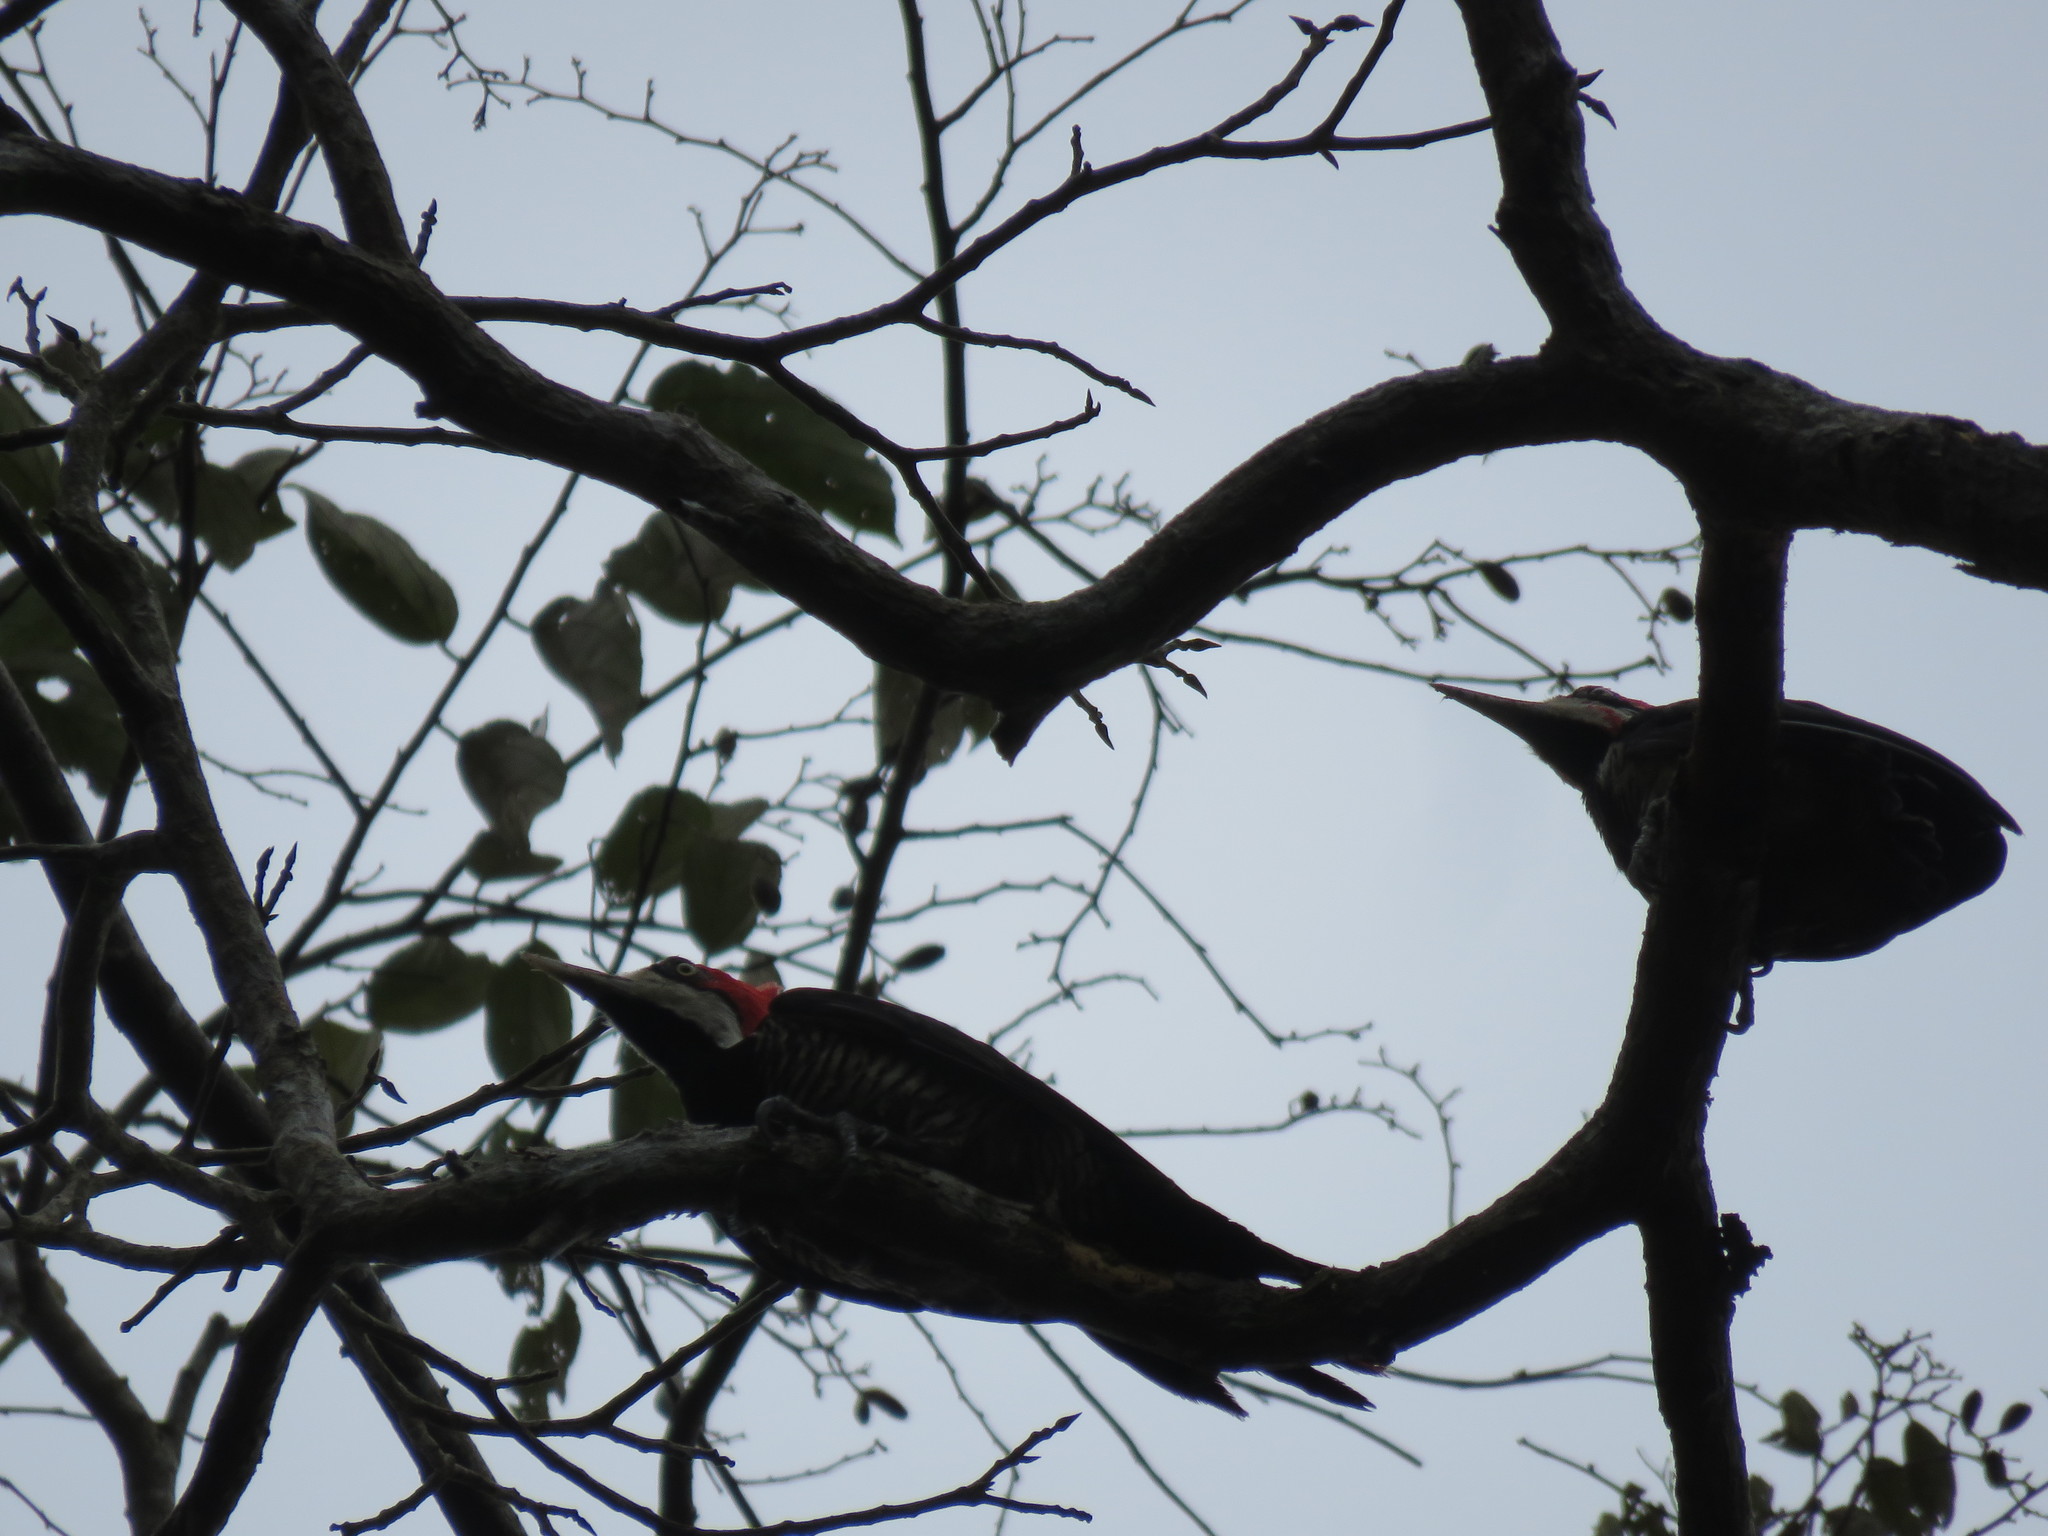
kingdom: Animalia
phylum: Chordata
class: Aves
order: Piciformes
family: Picidae
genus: Campephilus
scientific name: Campephilus melanoleucos
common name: Crimson-crested woodpecker
